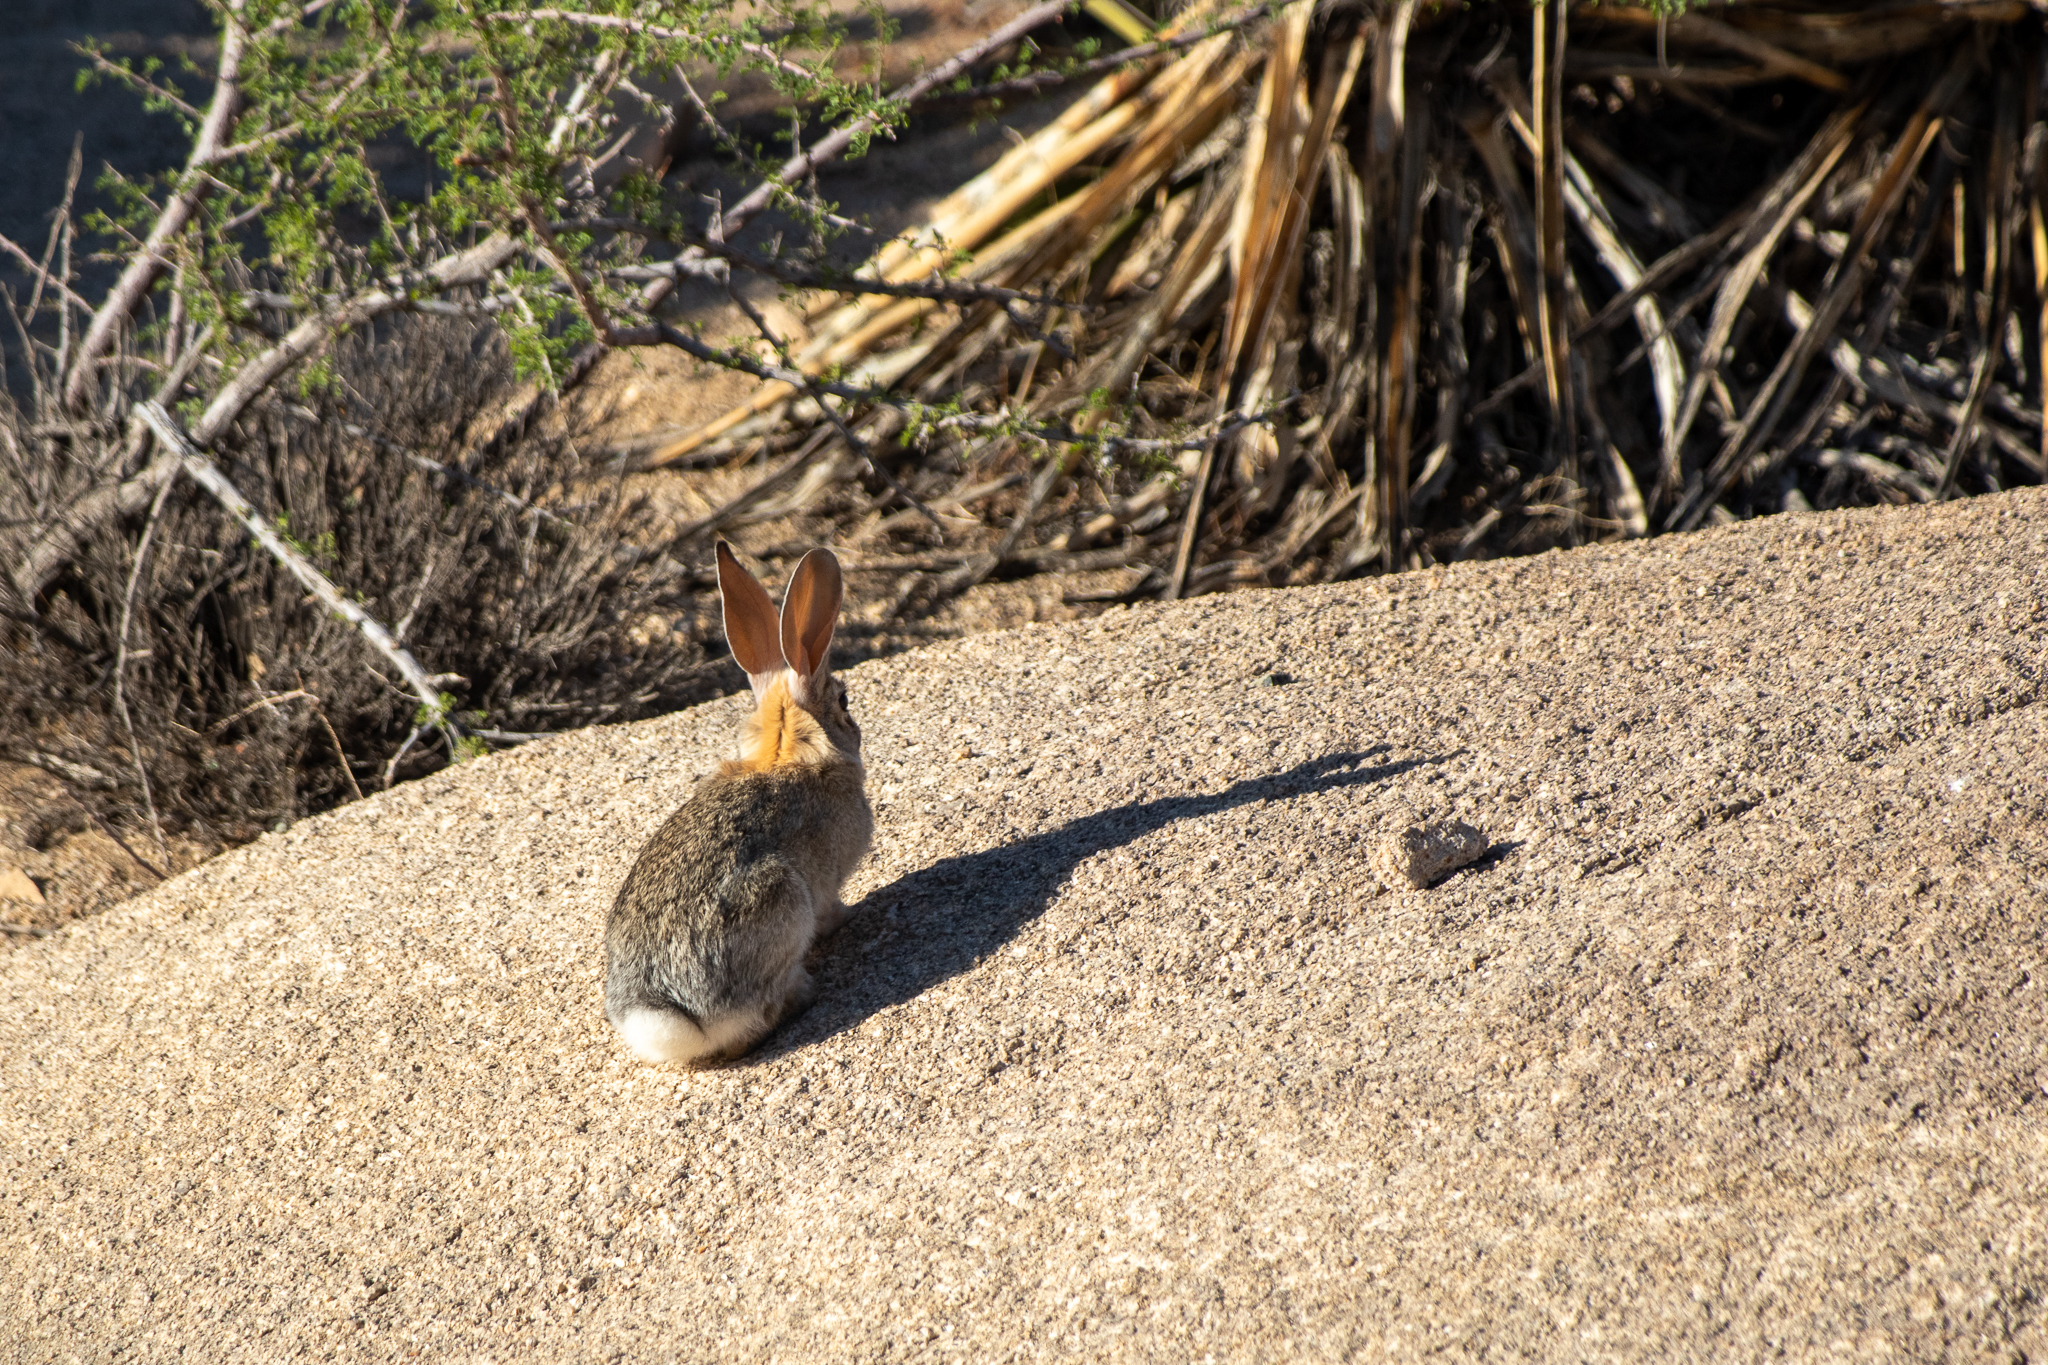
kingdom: Animalia
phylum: Chordata
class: Mammalia
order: Lagomorpha
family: Leporidae
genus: Sylvilagus
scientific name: Sylvilagus audubonii
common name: Desert cottontail
